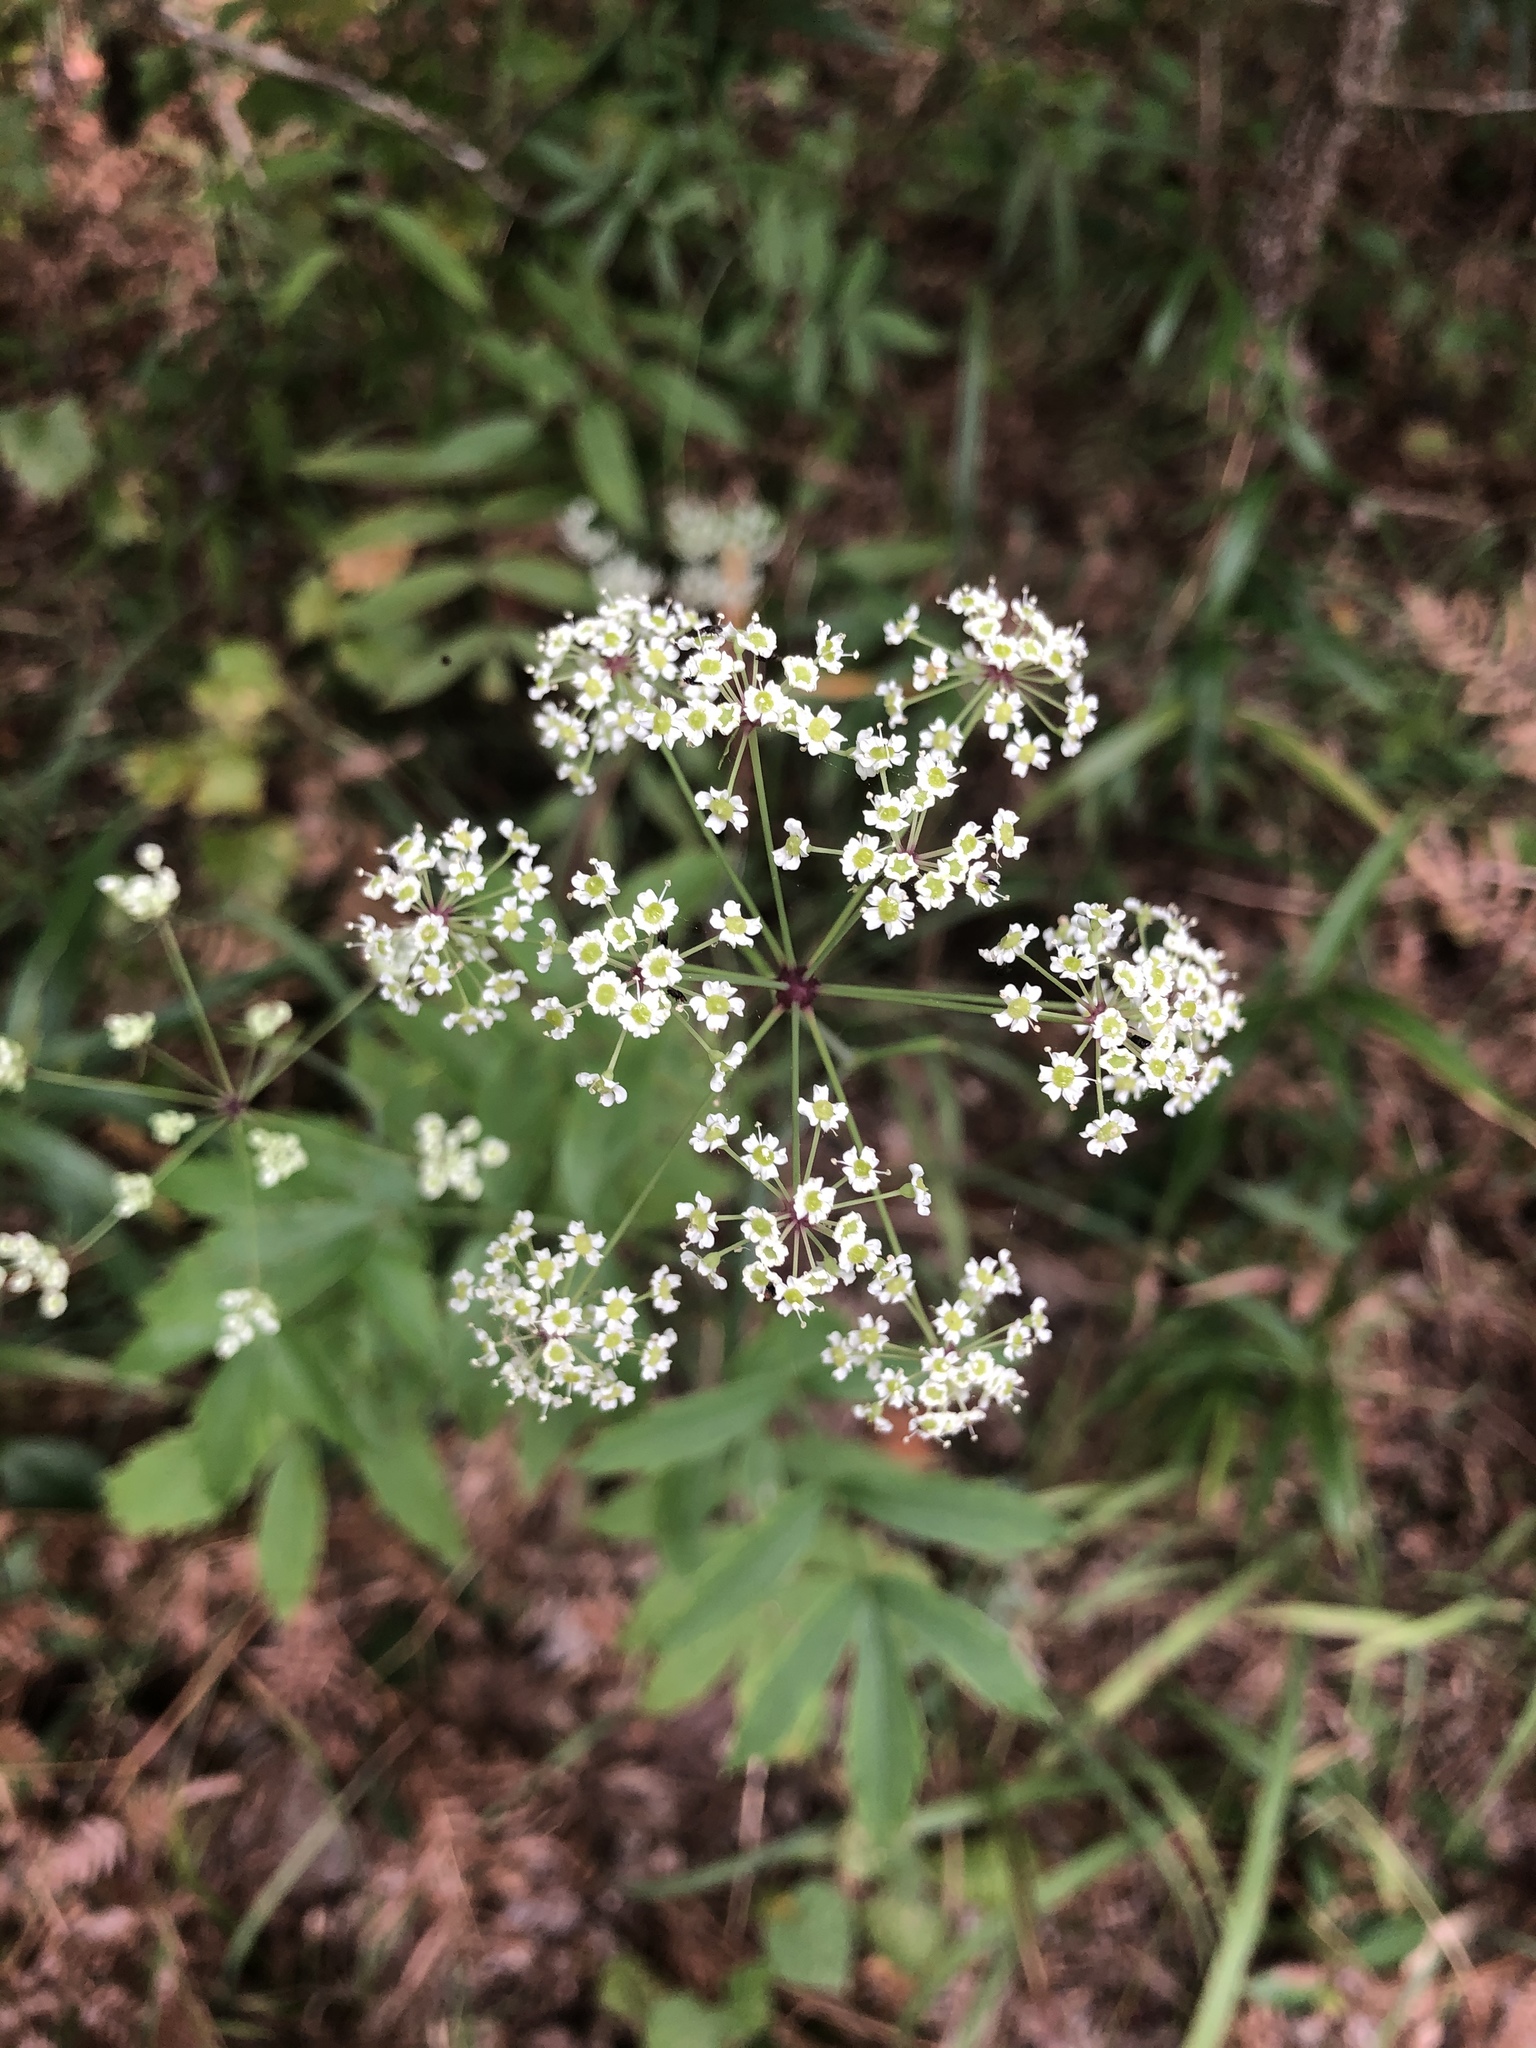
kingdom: Plantae
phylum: Tracheophyta
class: Magnoliopsida
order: Apiales
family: Apiaceae
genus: Oxypolis
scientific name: Oxypolis rigidior
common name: Cowbane
